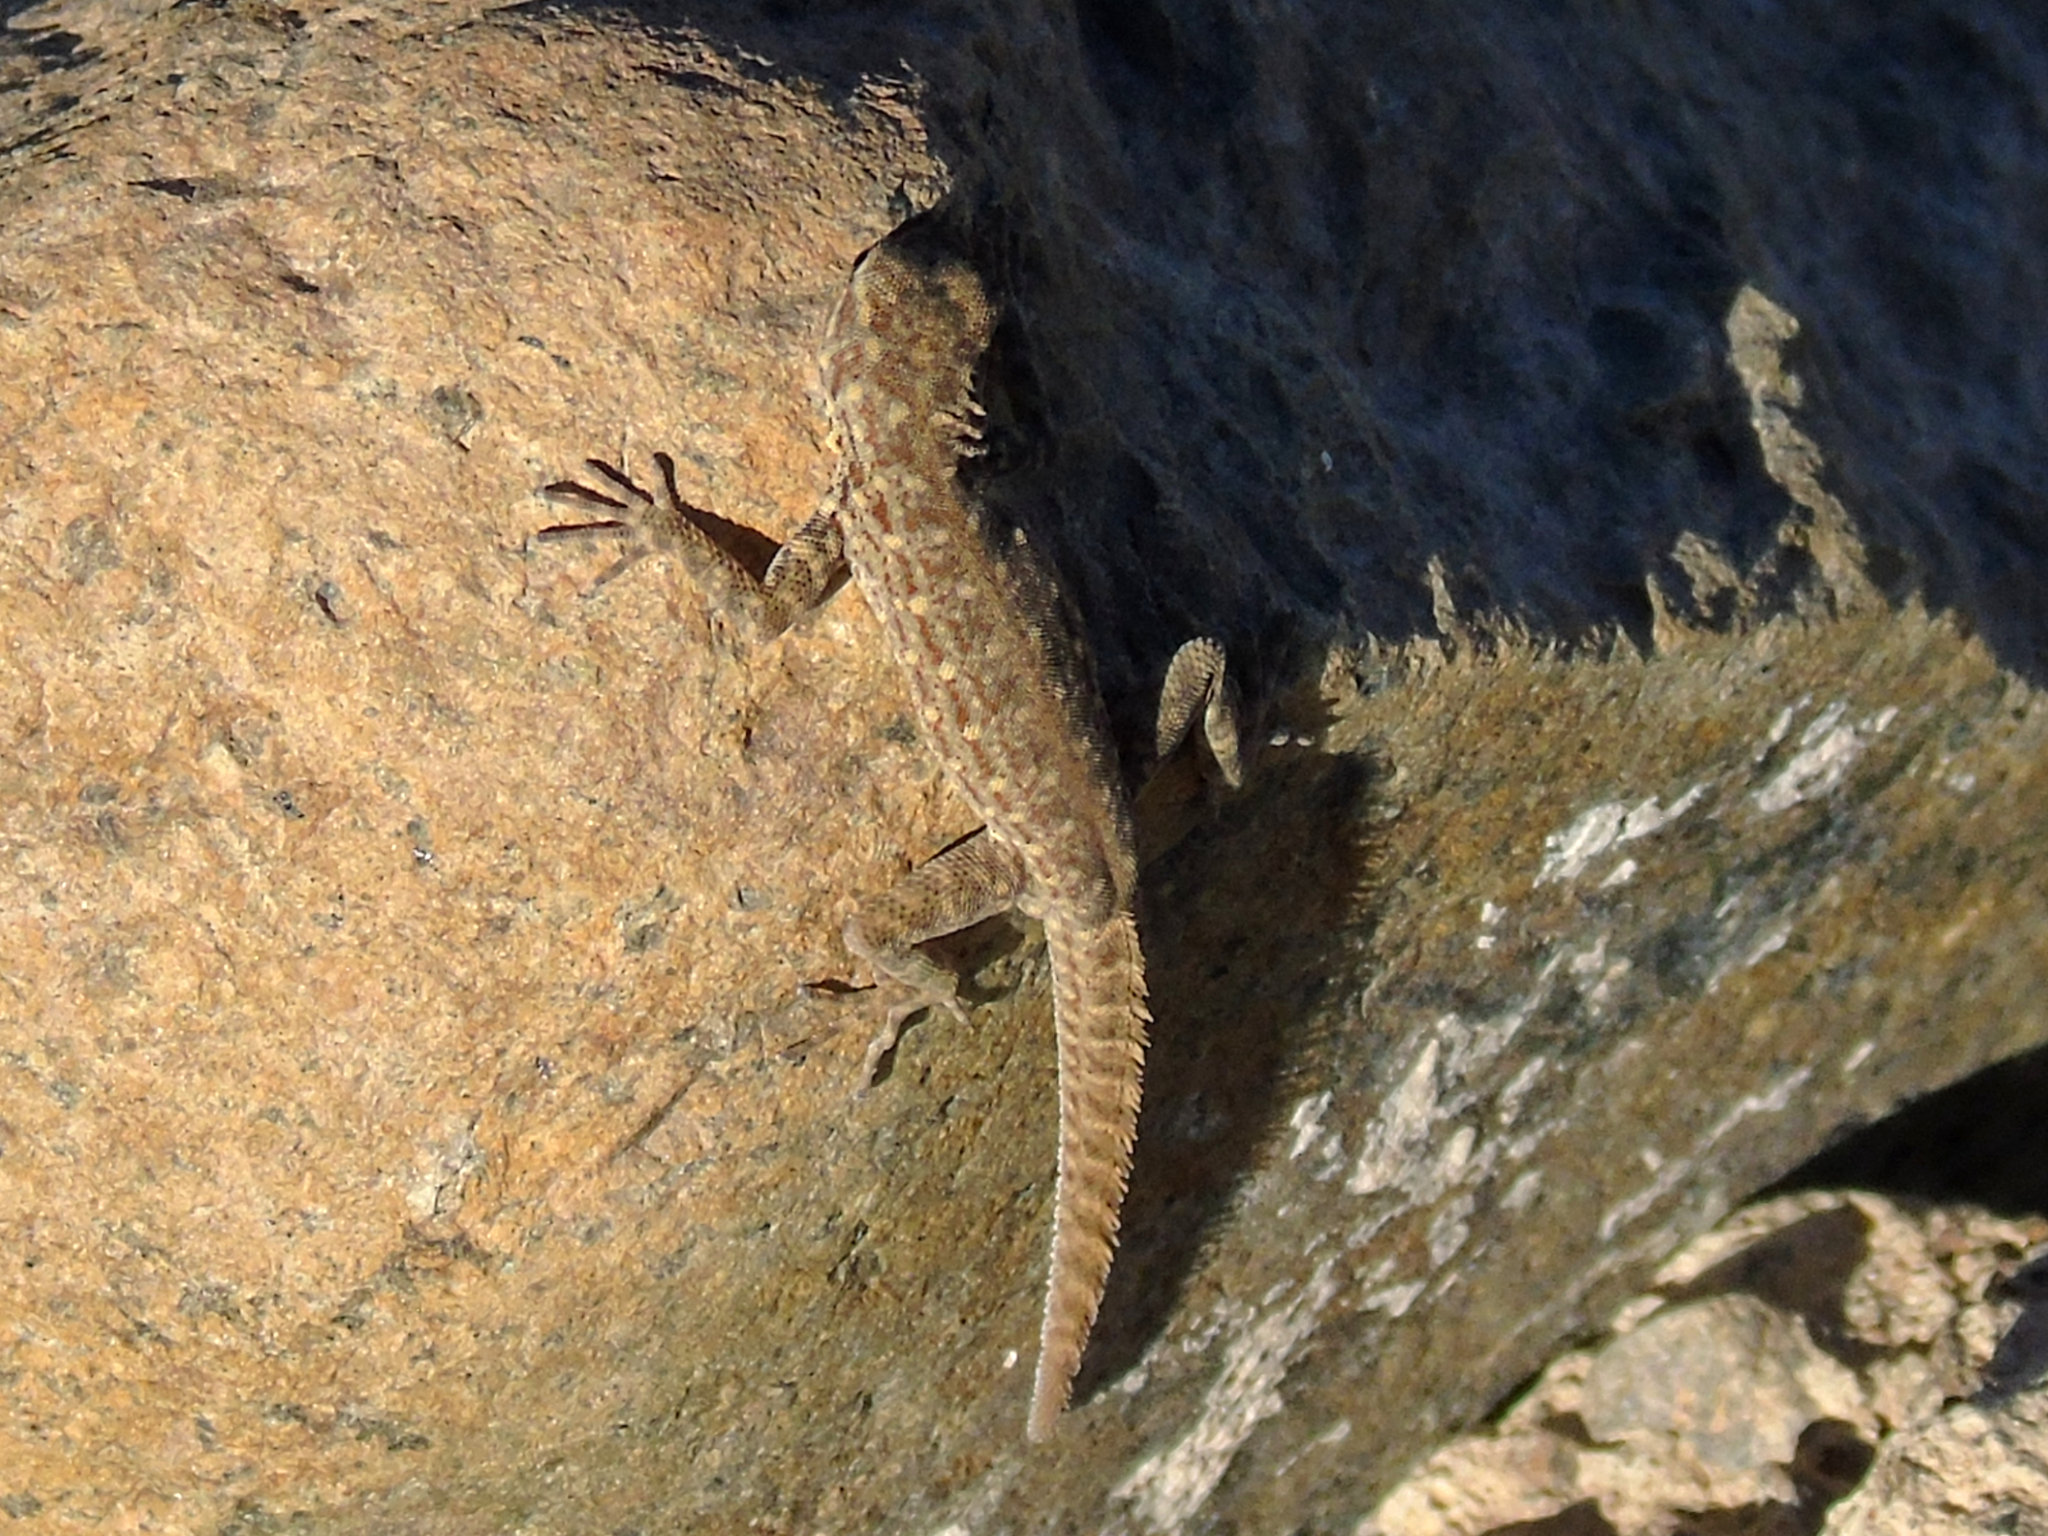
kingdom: Animalia
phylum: Chordata
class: Squamata
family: Sphaerodactylidae
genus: Pristurus
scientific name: Pristurus rupestris
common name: Blanford’s semaphore gecko
